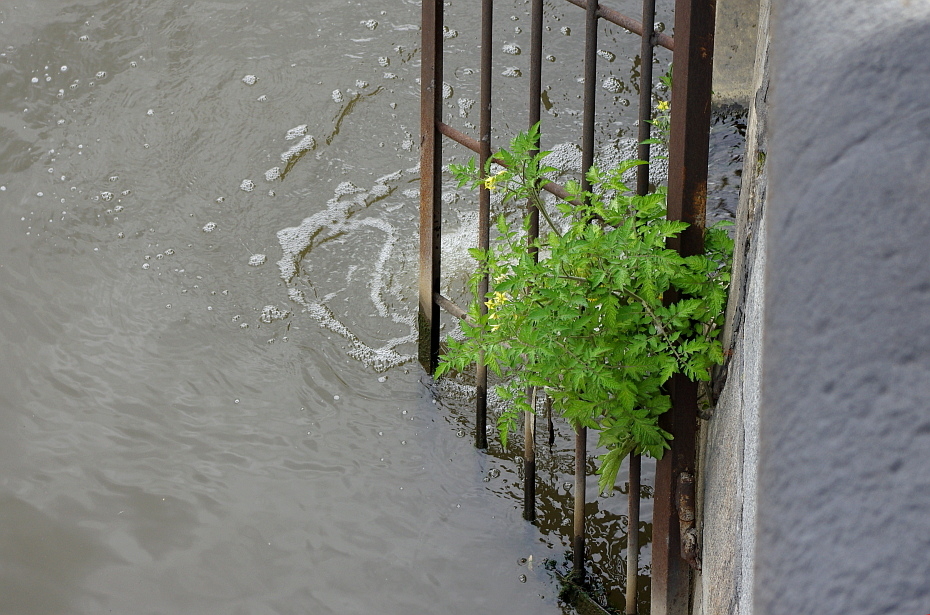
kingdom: Plantae
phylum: Tracheophyta
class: Magnoliopsida
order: Solanales
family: Solanaceae
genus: Solanum
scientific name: Solanum lycopersicum
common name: Garden tomato
